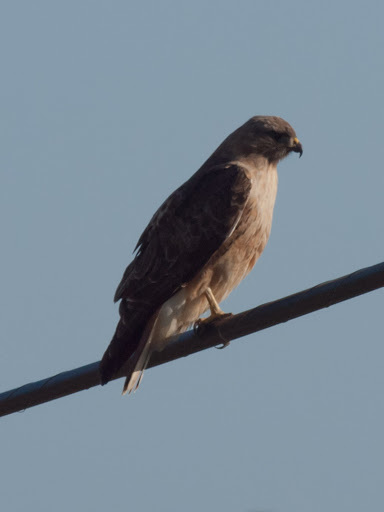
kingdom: Animalia
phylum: Chordata
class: Aves
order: Accipitriformes
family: Accipitridae
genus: Buteo
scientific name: Buteo jamaicensis
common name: Red-tailed hawk
